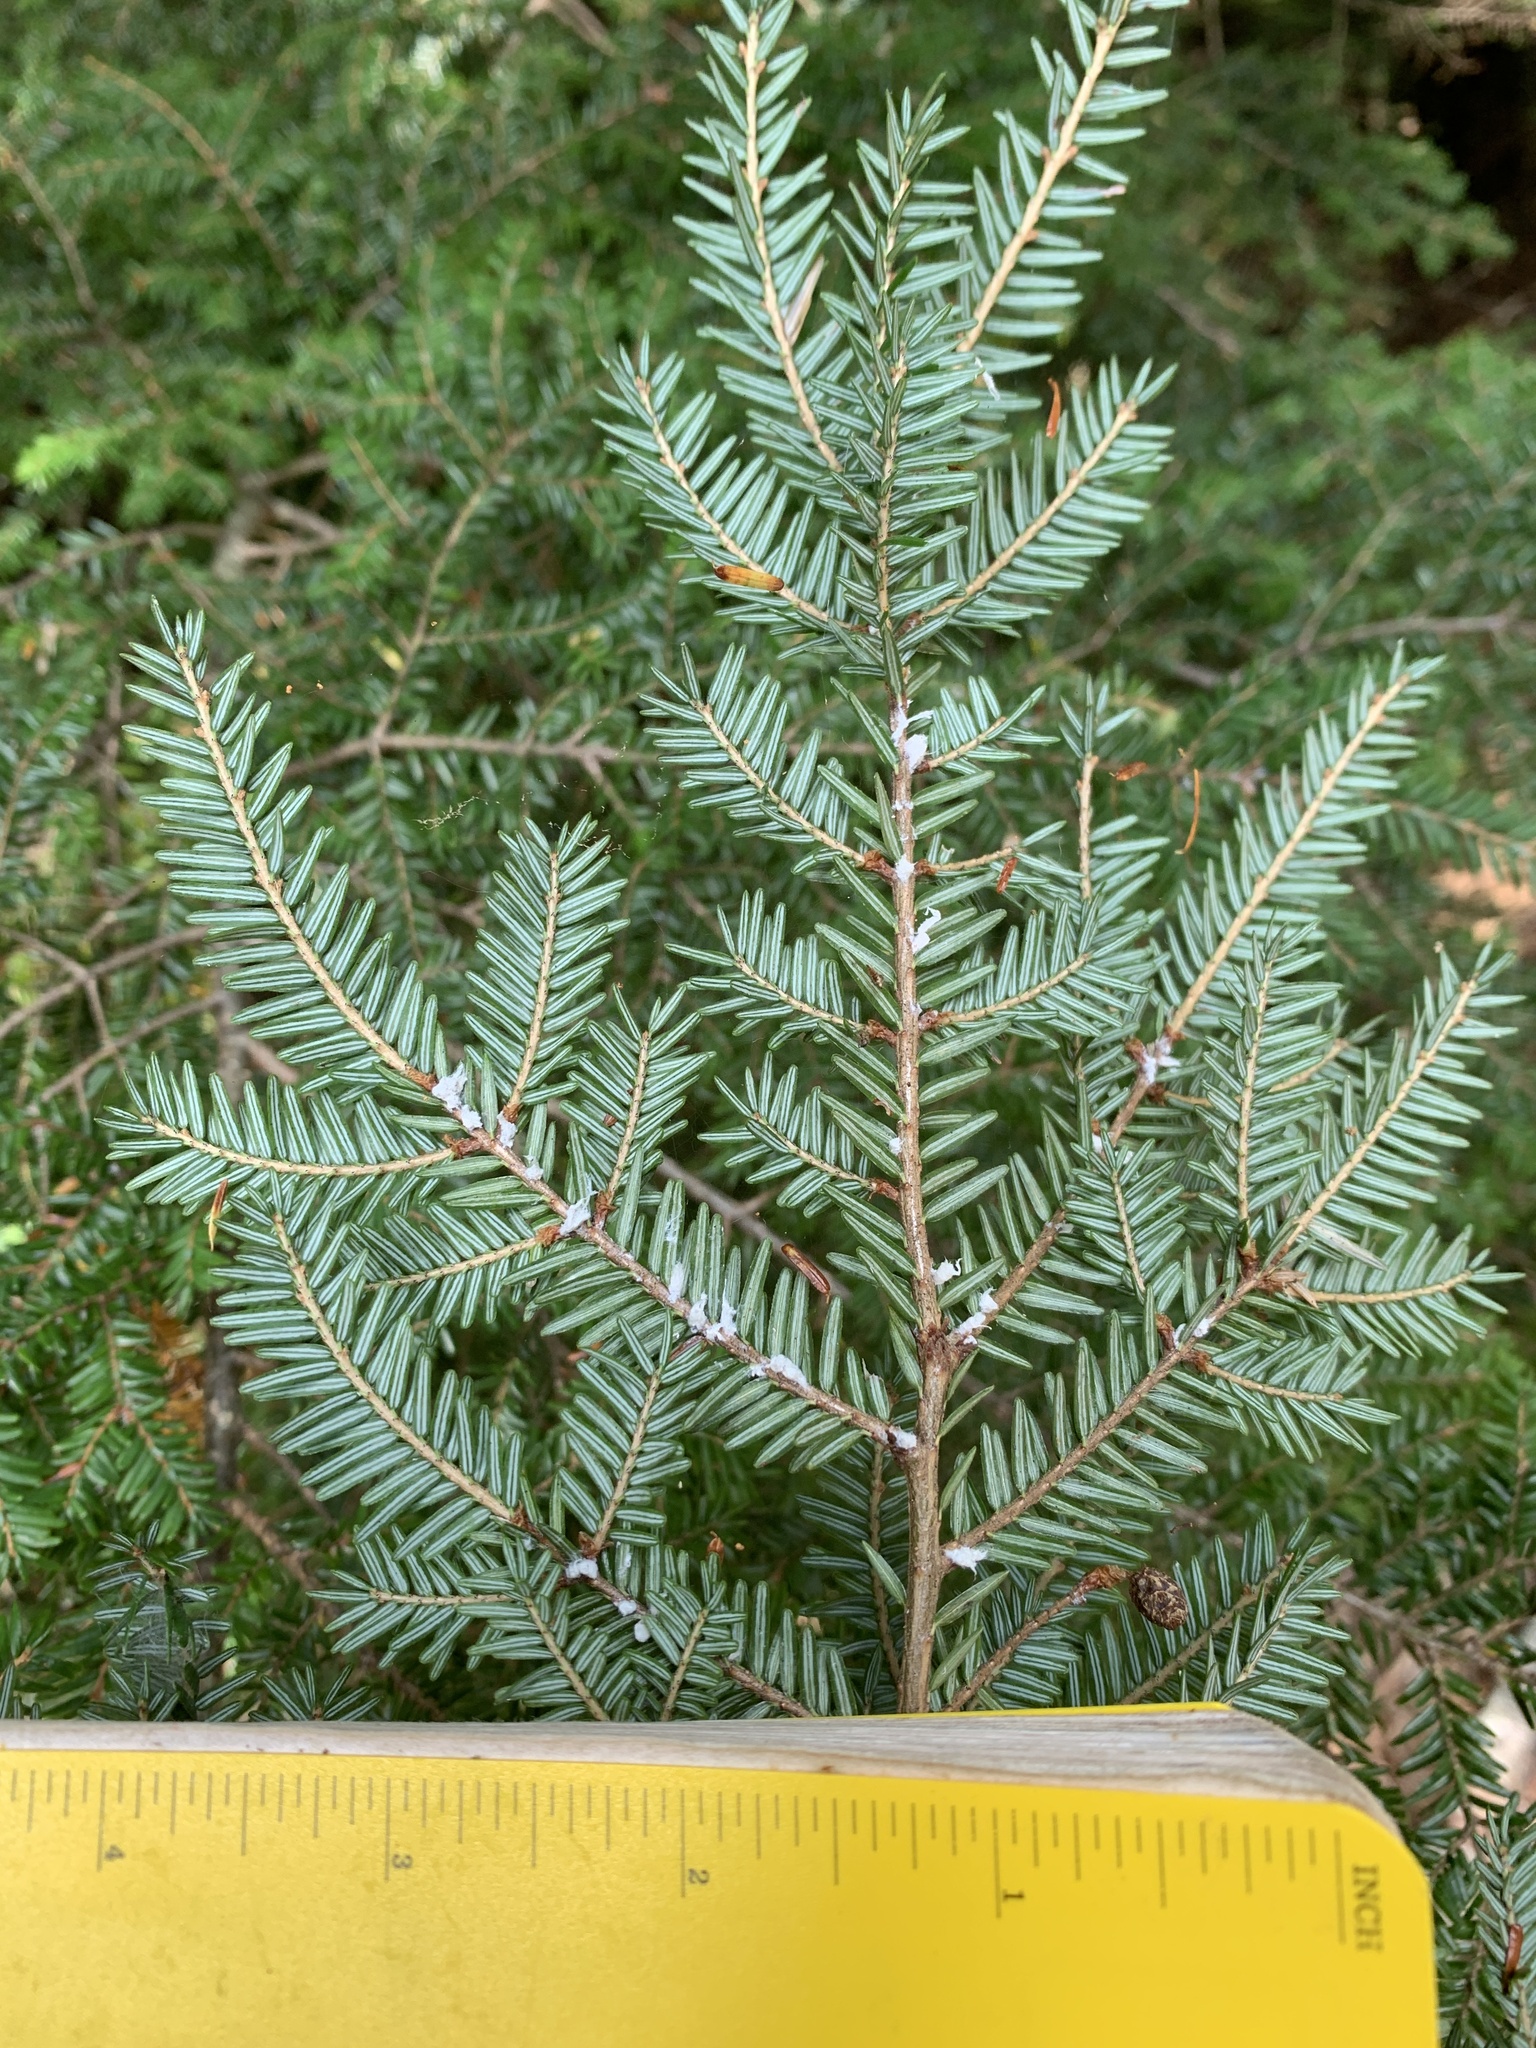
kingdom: Animalia
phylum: Arthropoda
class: Insecta
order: Hemiptera
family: Adelgidae
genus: Adelges
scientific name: Adelges tsugae
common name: Hemlock woolly adelgid
